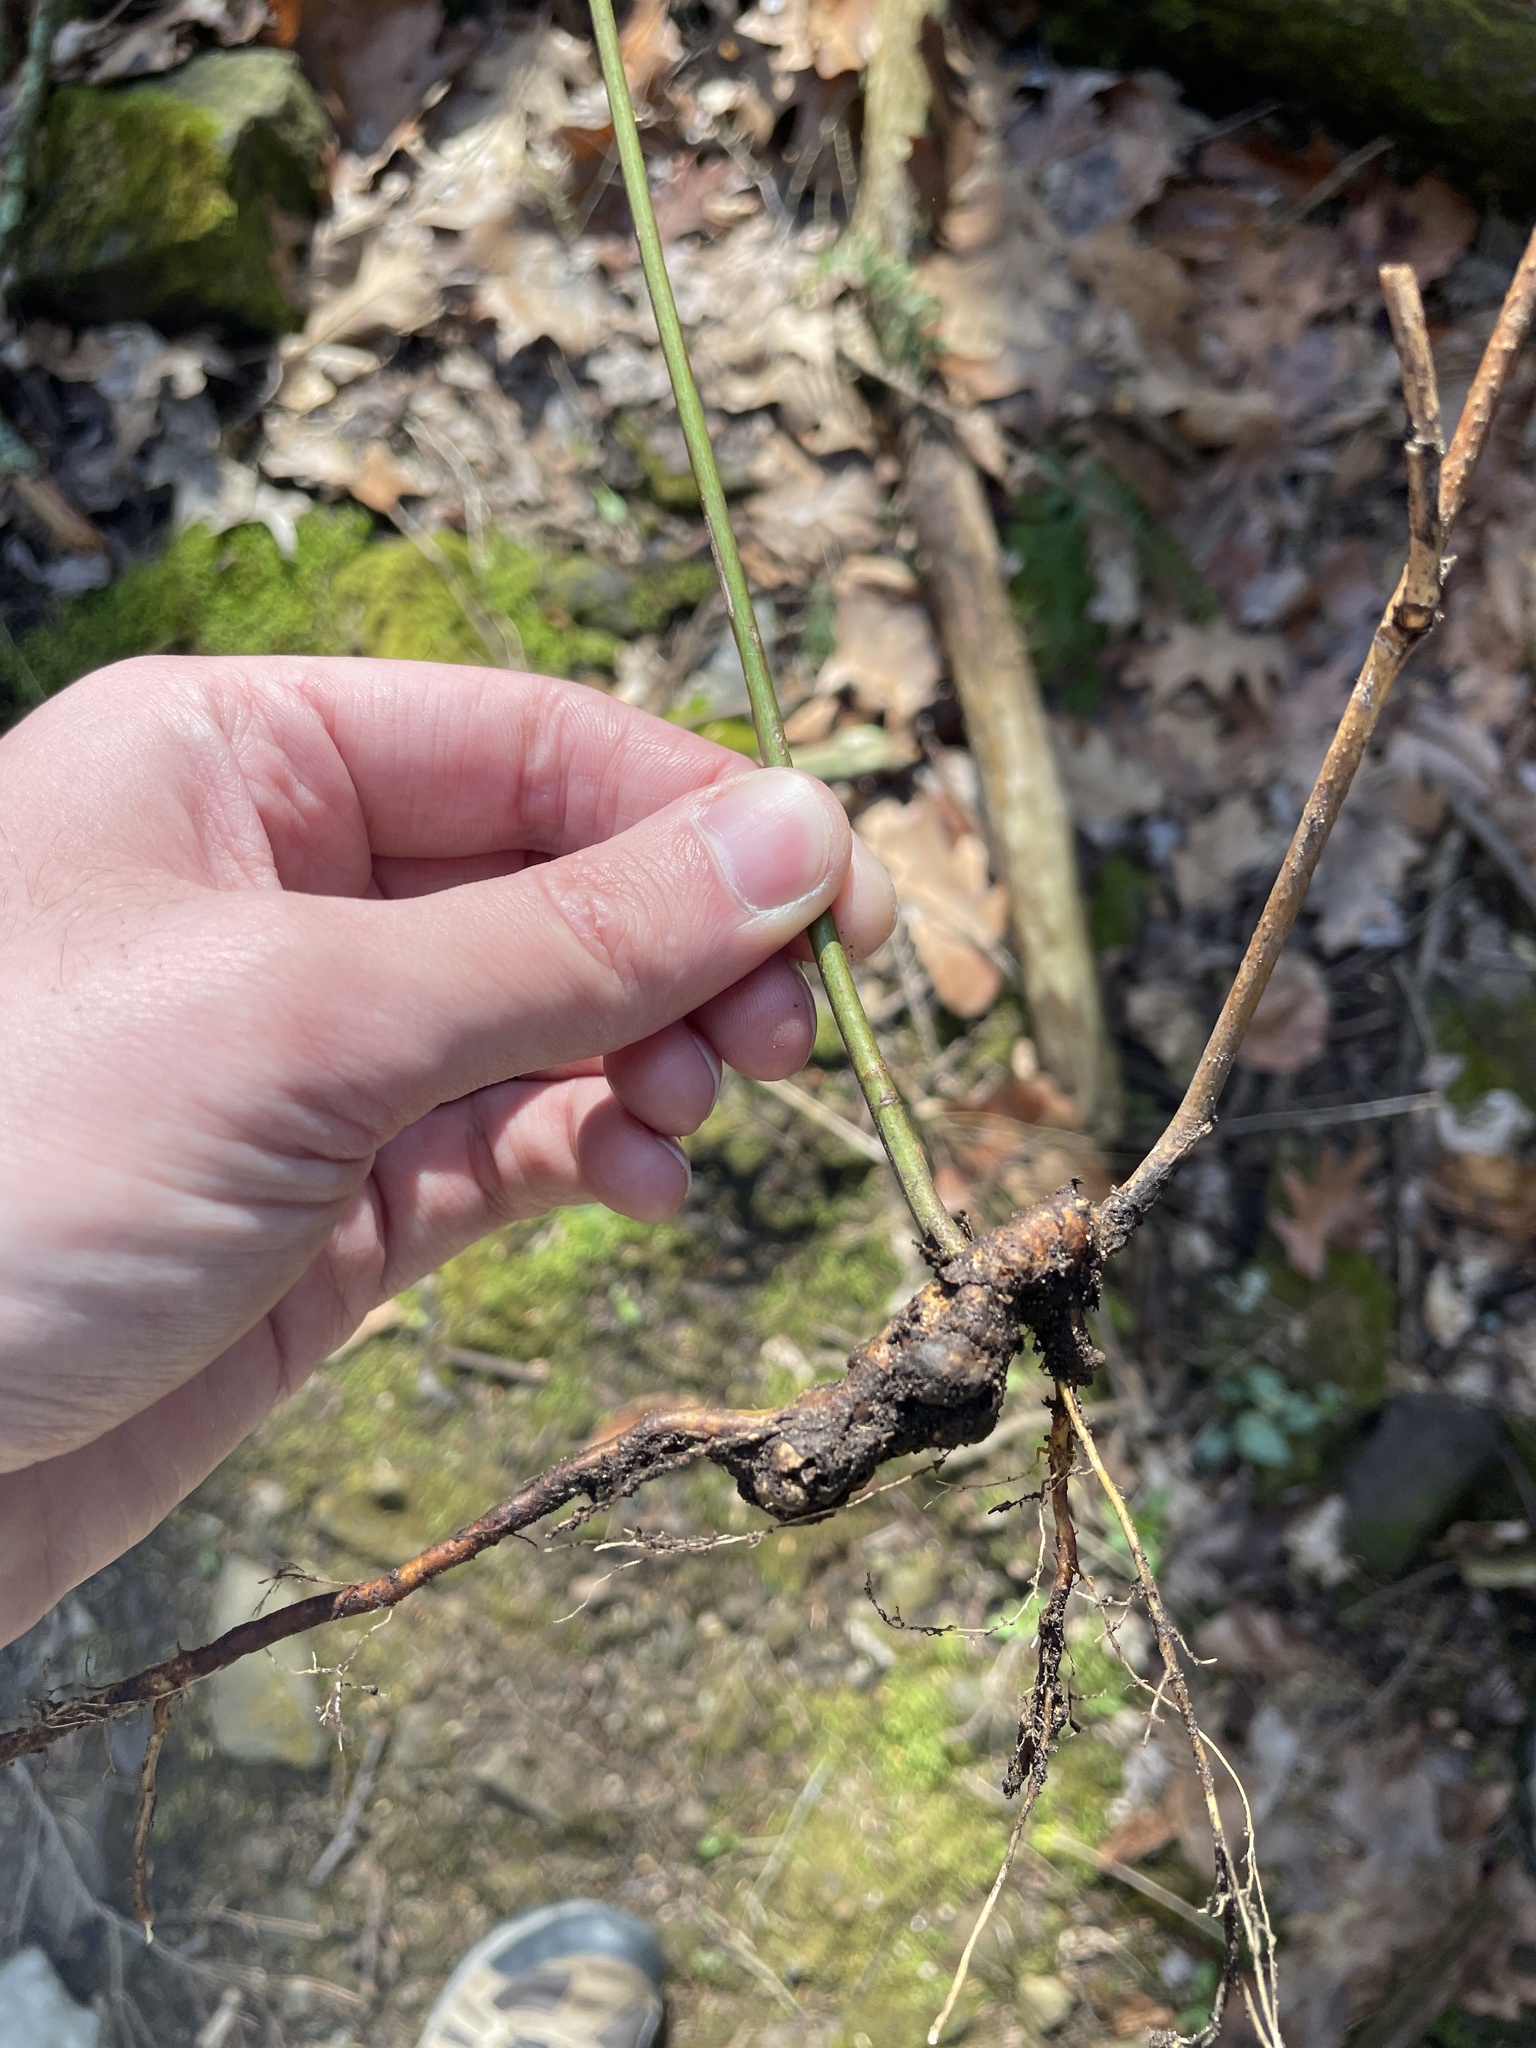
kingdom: Animalia
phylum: Arthropoda
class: Insecta
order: Hymenoptera
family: Cynipidae
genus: Diastrophus
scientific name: Diastrophus
